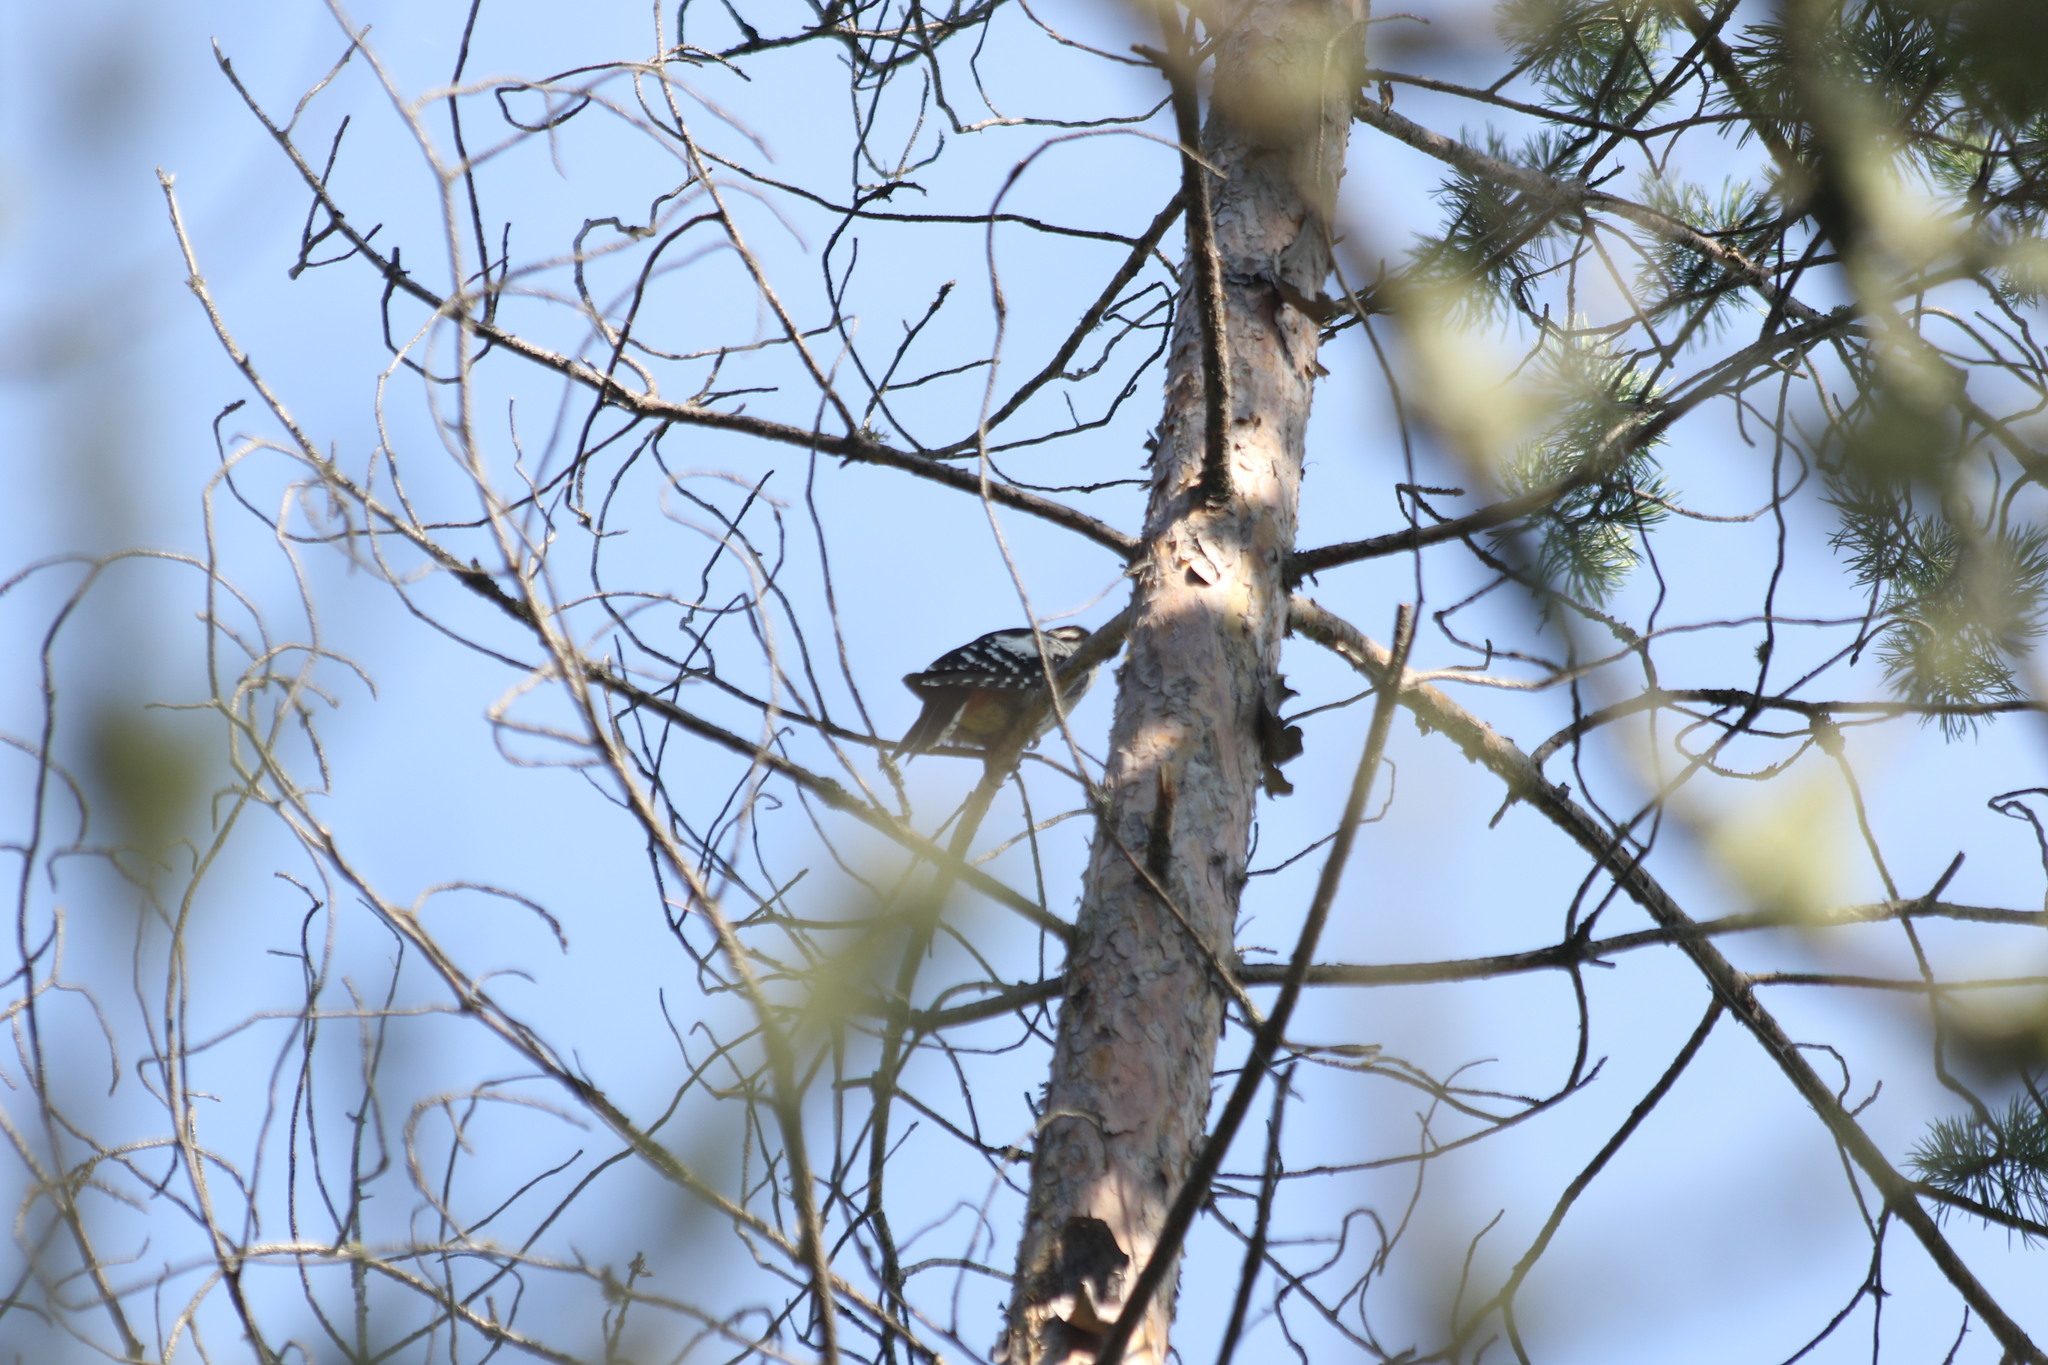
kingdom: Animalia
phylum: Chordata
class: Aves
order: Piciformes
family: Picidae
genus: Dendrocopos
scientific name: Dendrocopos major
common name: Great spotted woodpecker
